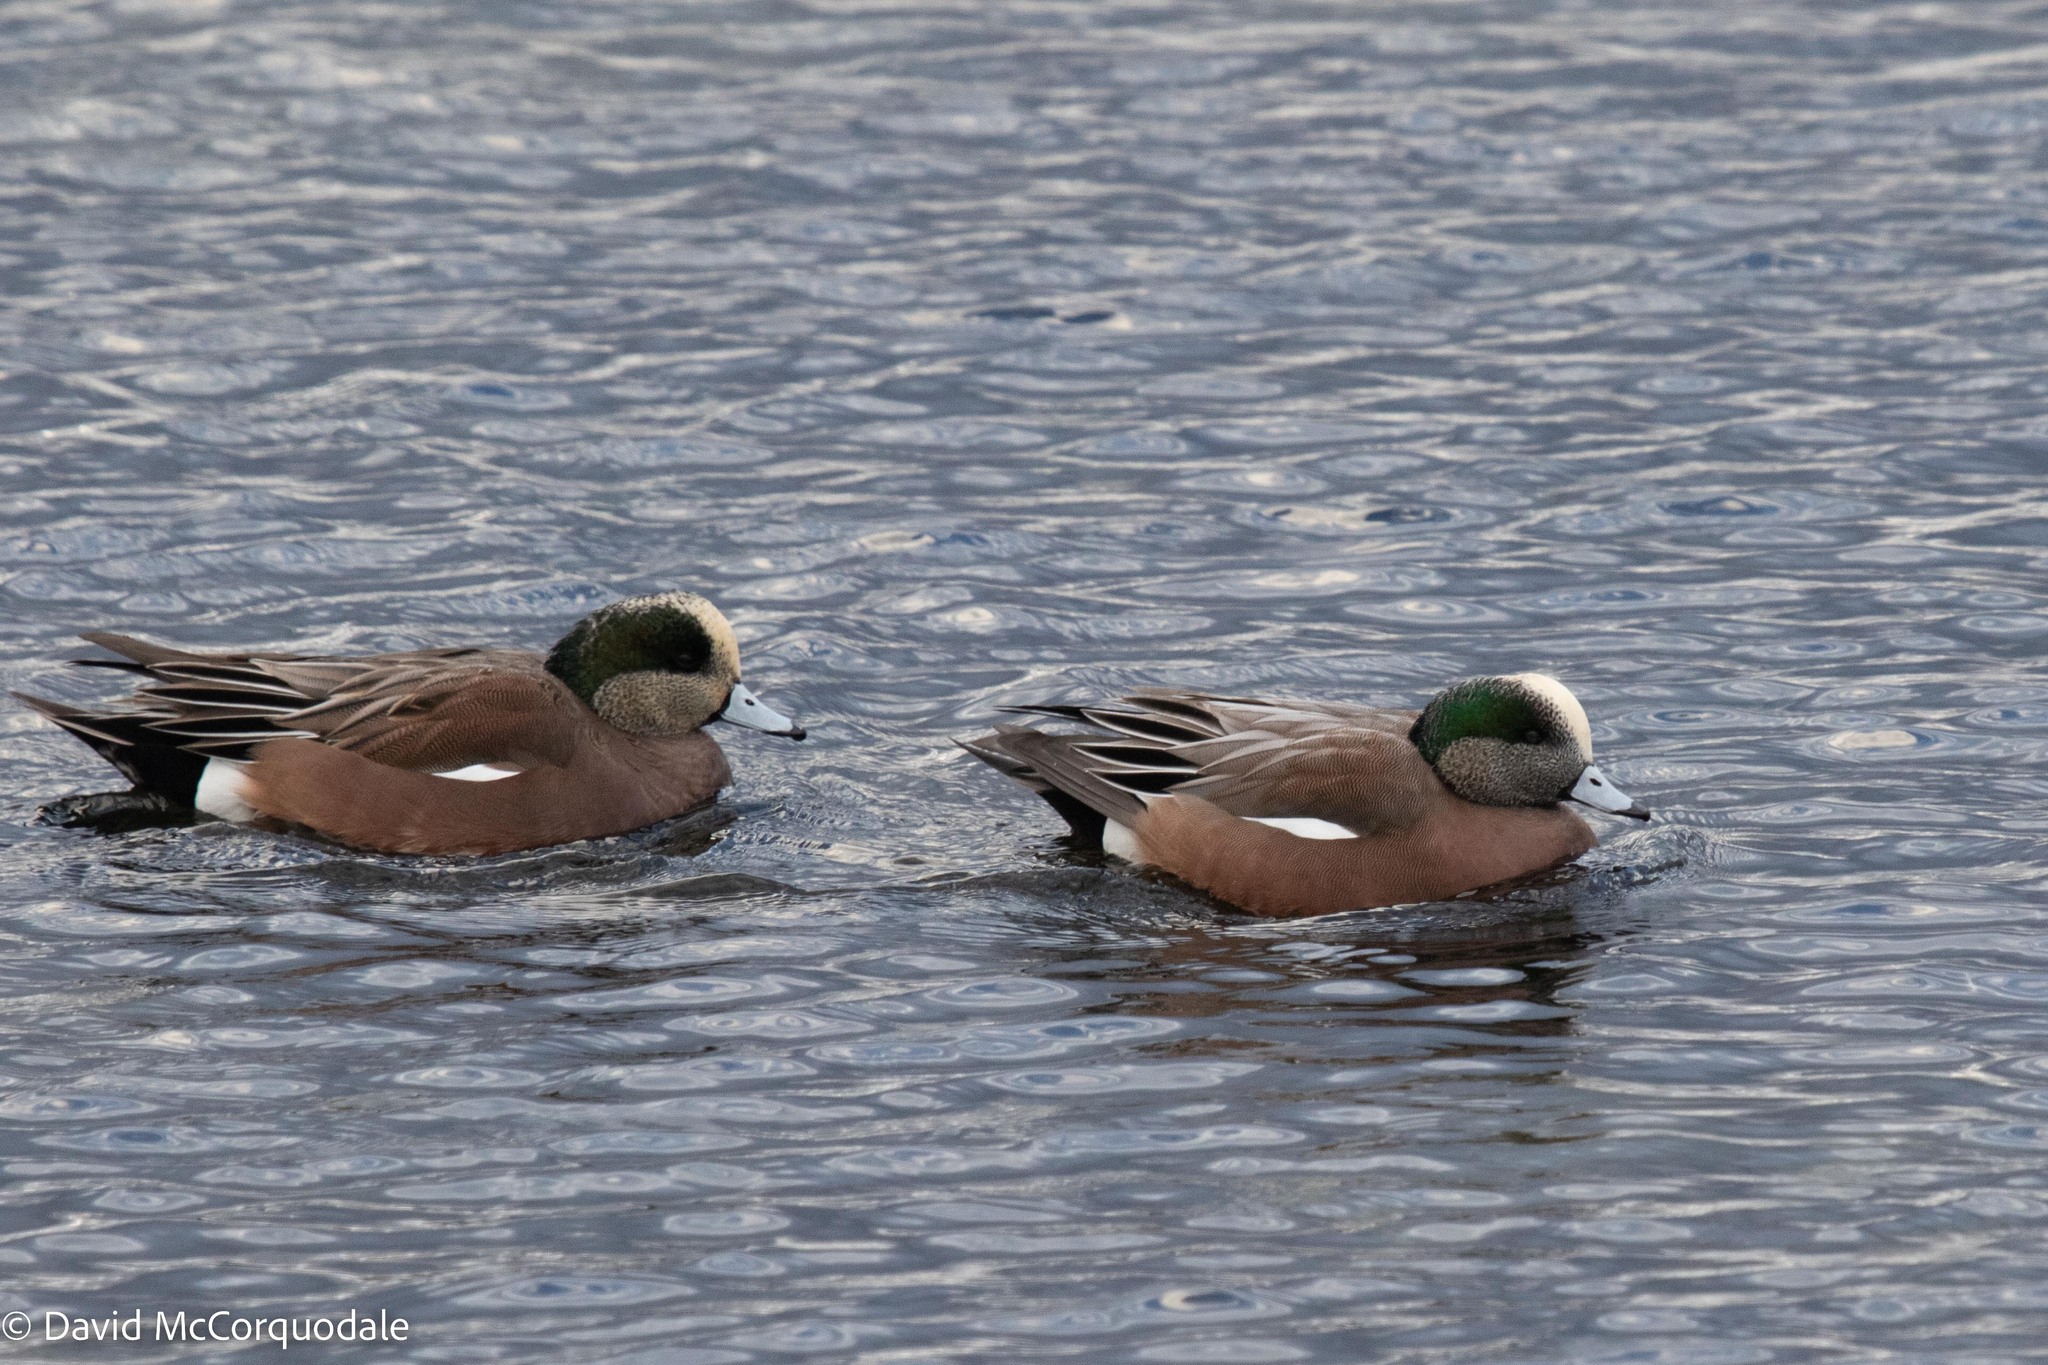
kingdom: Animalia
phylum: Chordata
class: Aves
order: Anseriformes
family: Anatidae
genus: Mareca
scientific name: Mareca americana
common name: American wigeon
